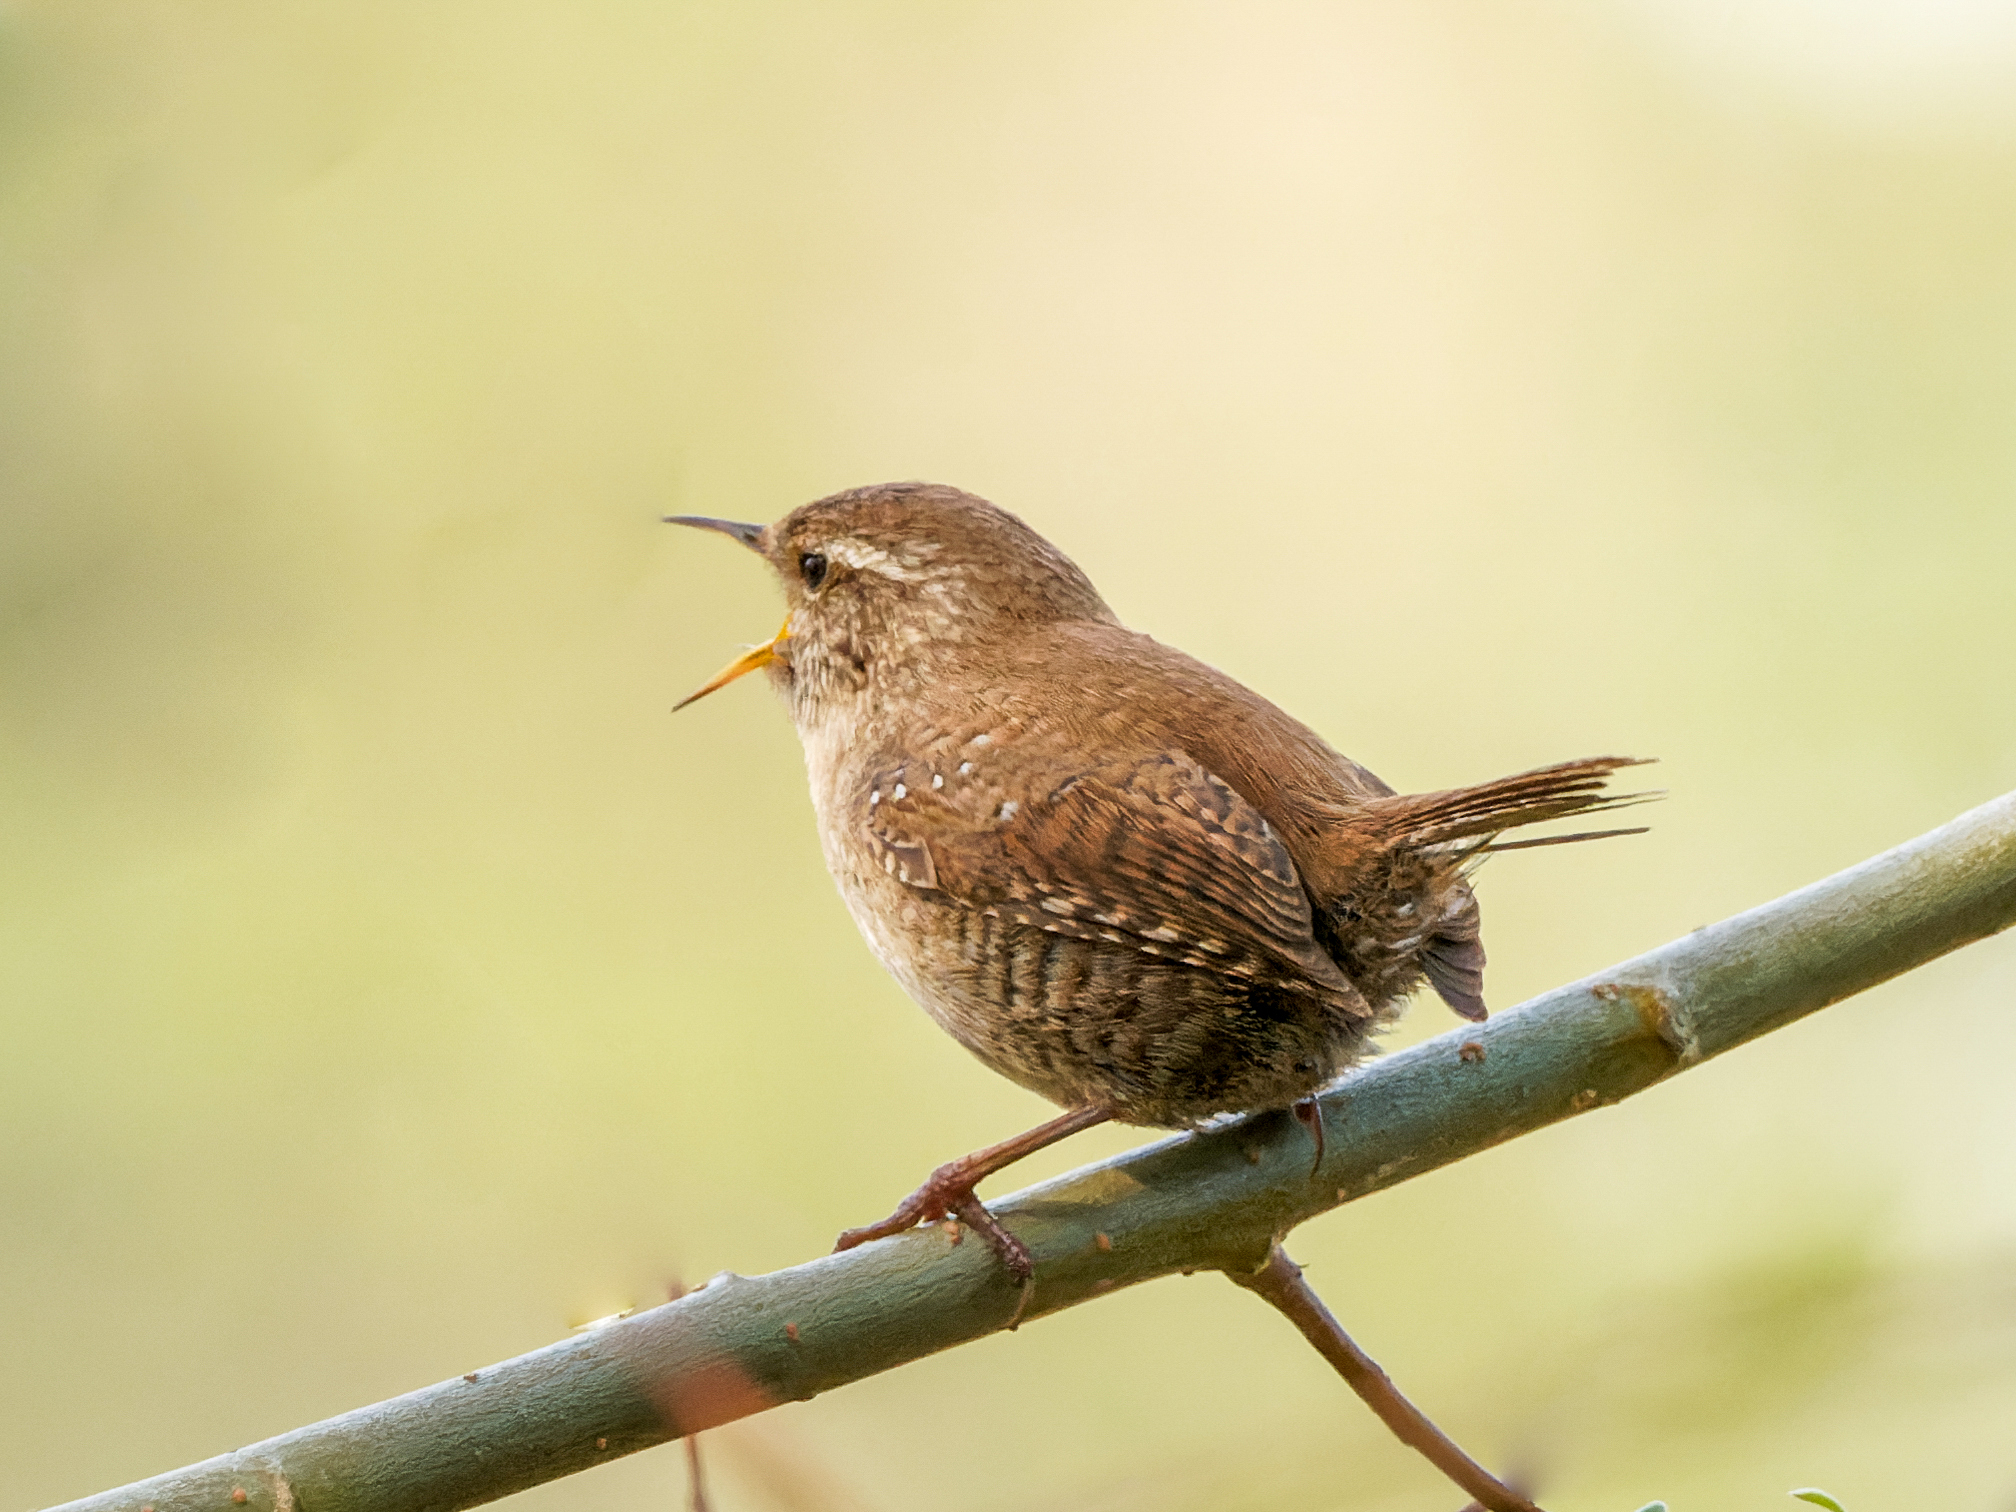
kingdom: Animalia
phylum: Chordata
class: Aves
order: Passeriformes
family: Troglodytidae
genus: Troglodytes
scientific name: Troglodytes troglodytes
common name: Eurasian wren
